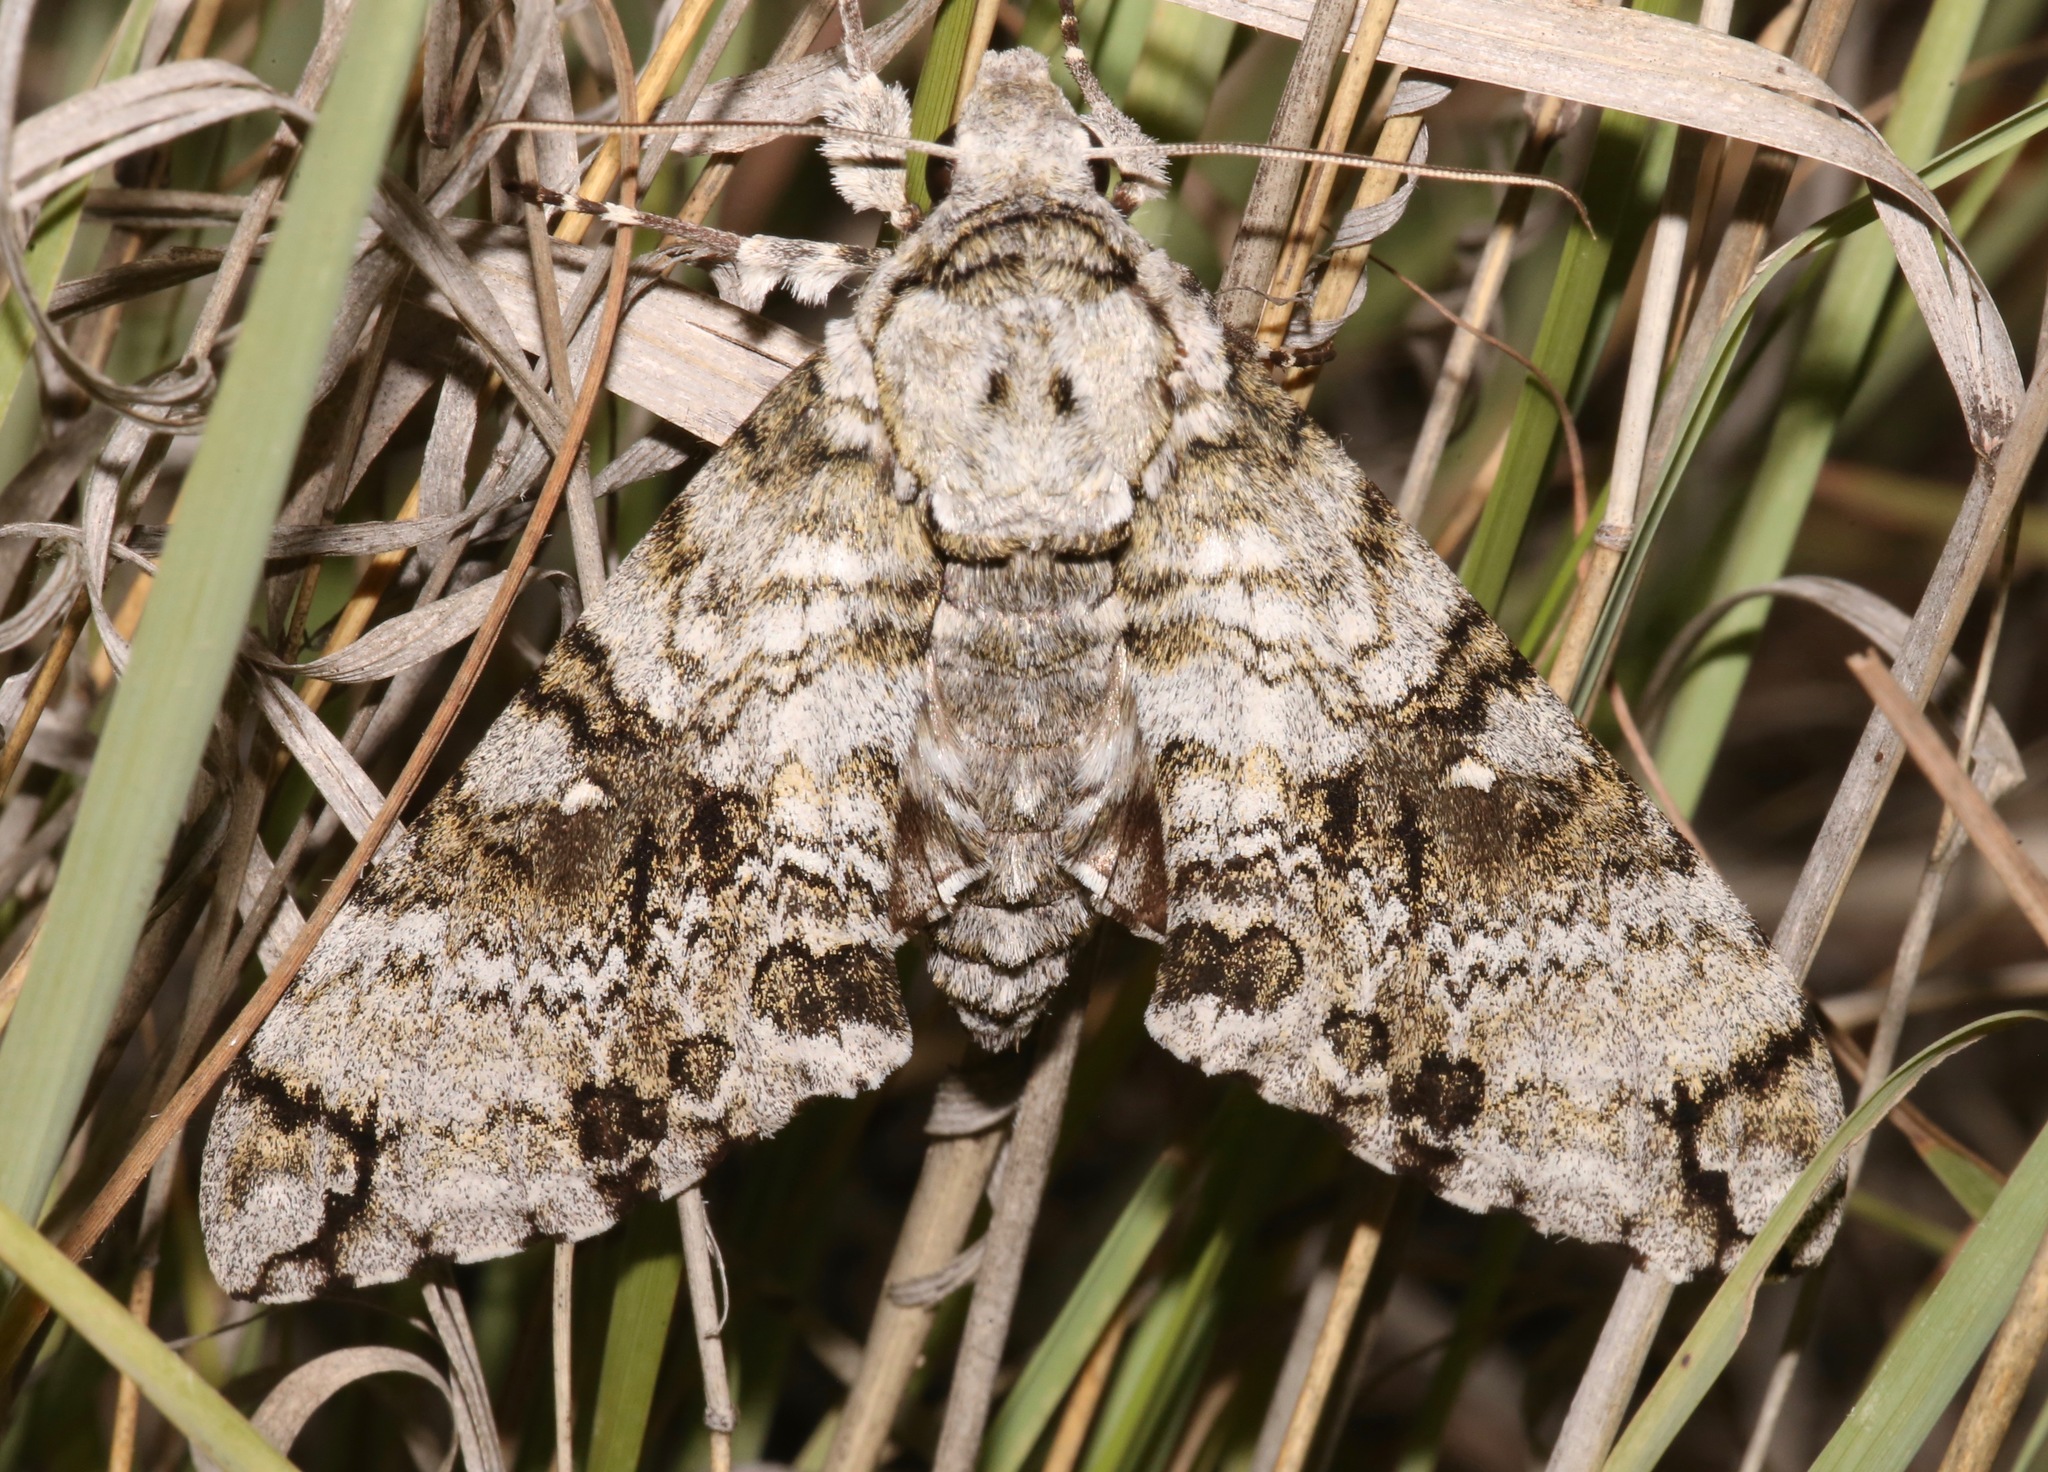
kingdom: Animalia
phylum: Arthropoda
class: Insecta
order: Lepidoptera
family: Sphingidae
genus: Manduca
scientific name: Manduca florestan
